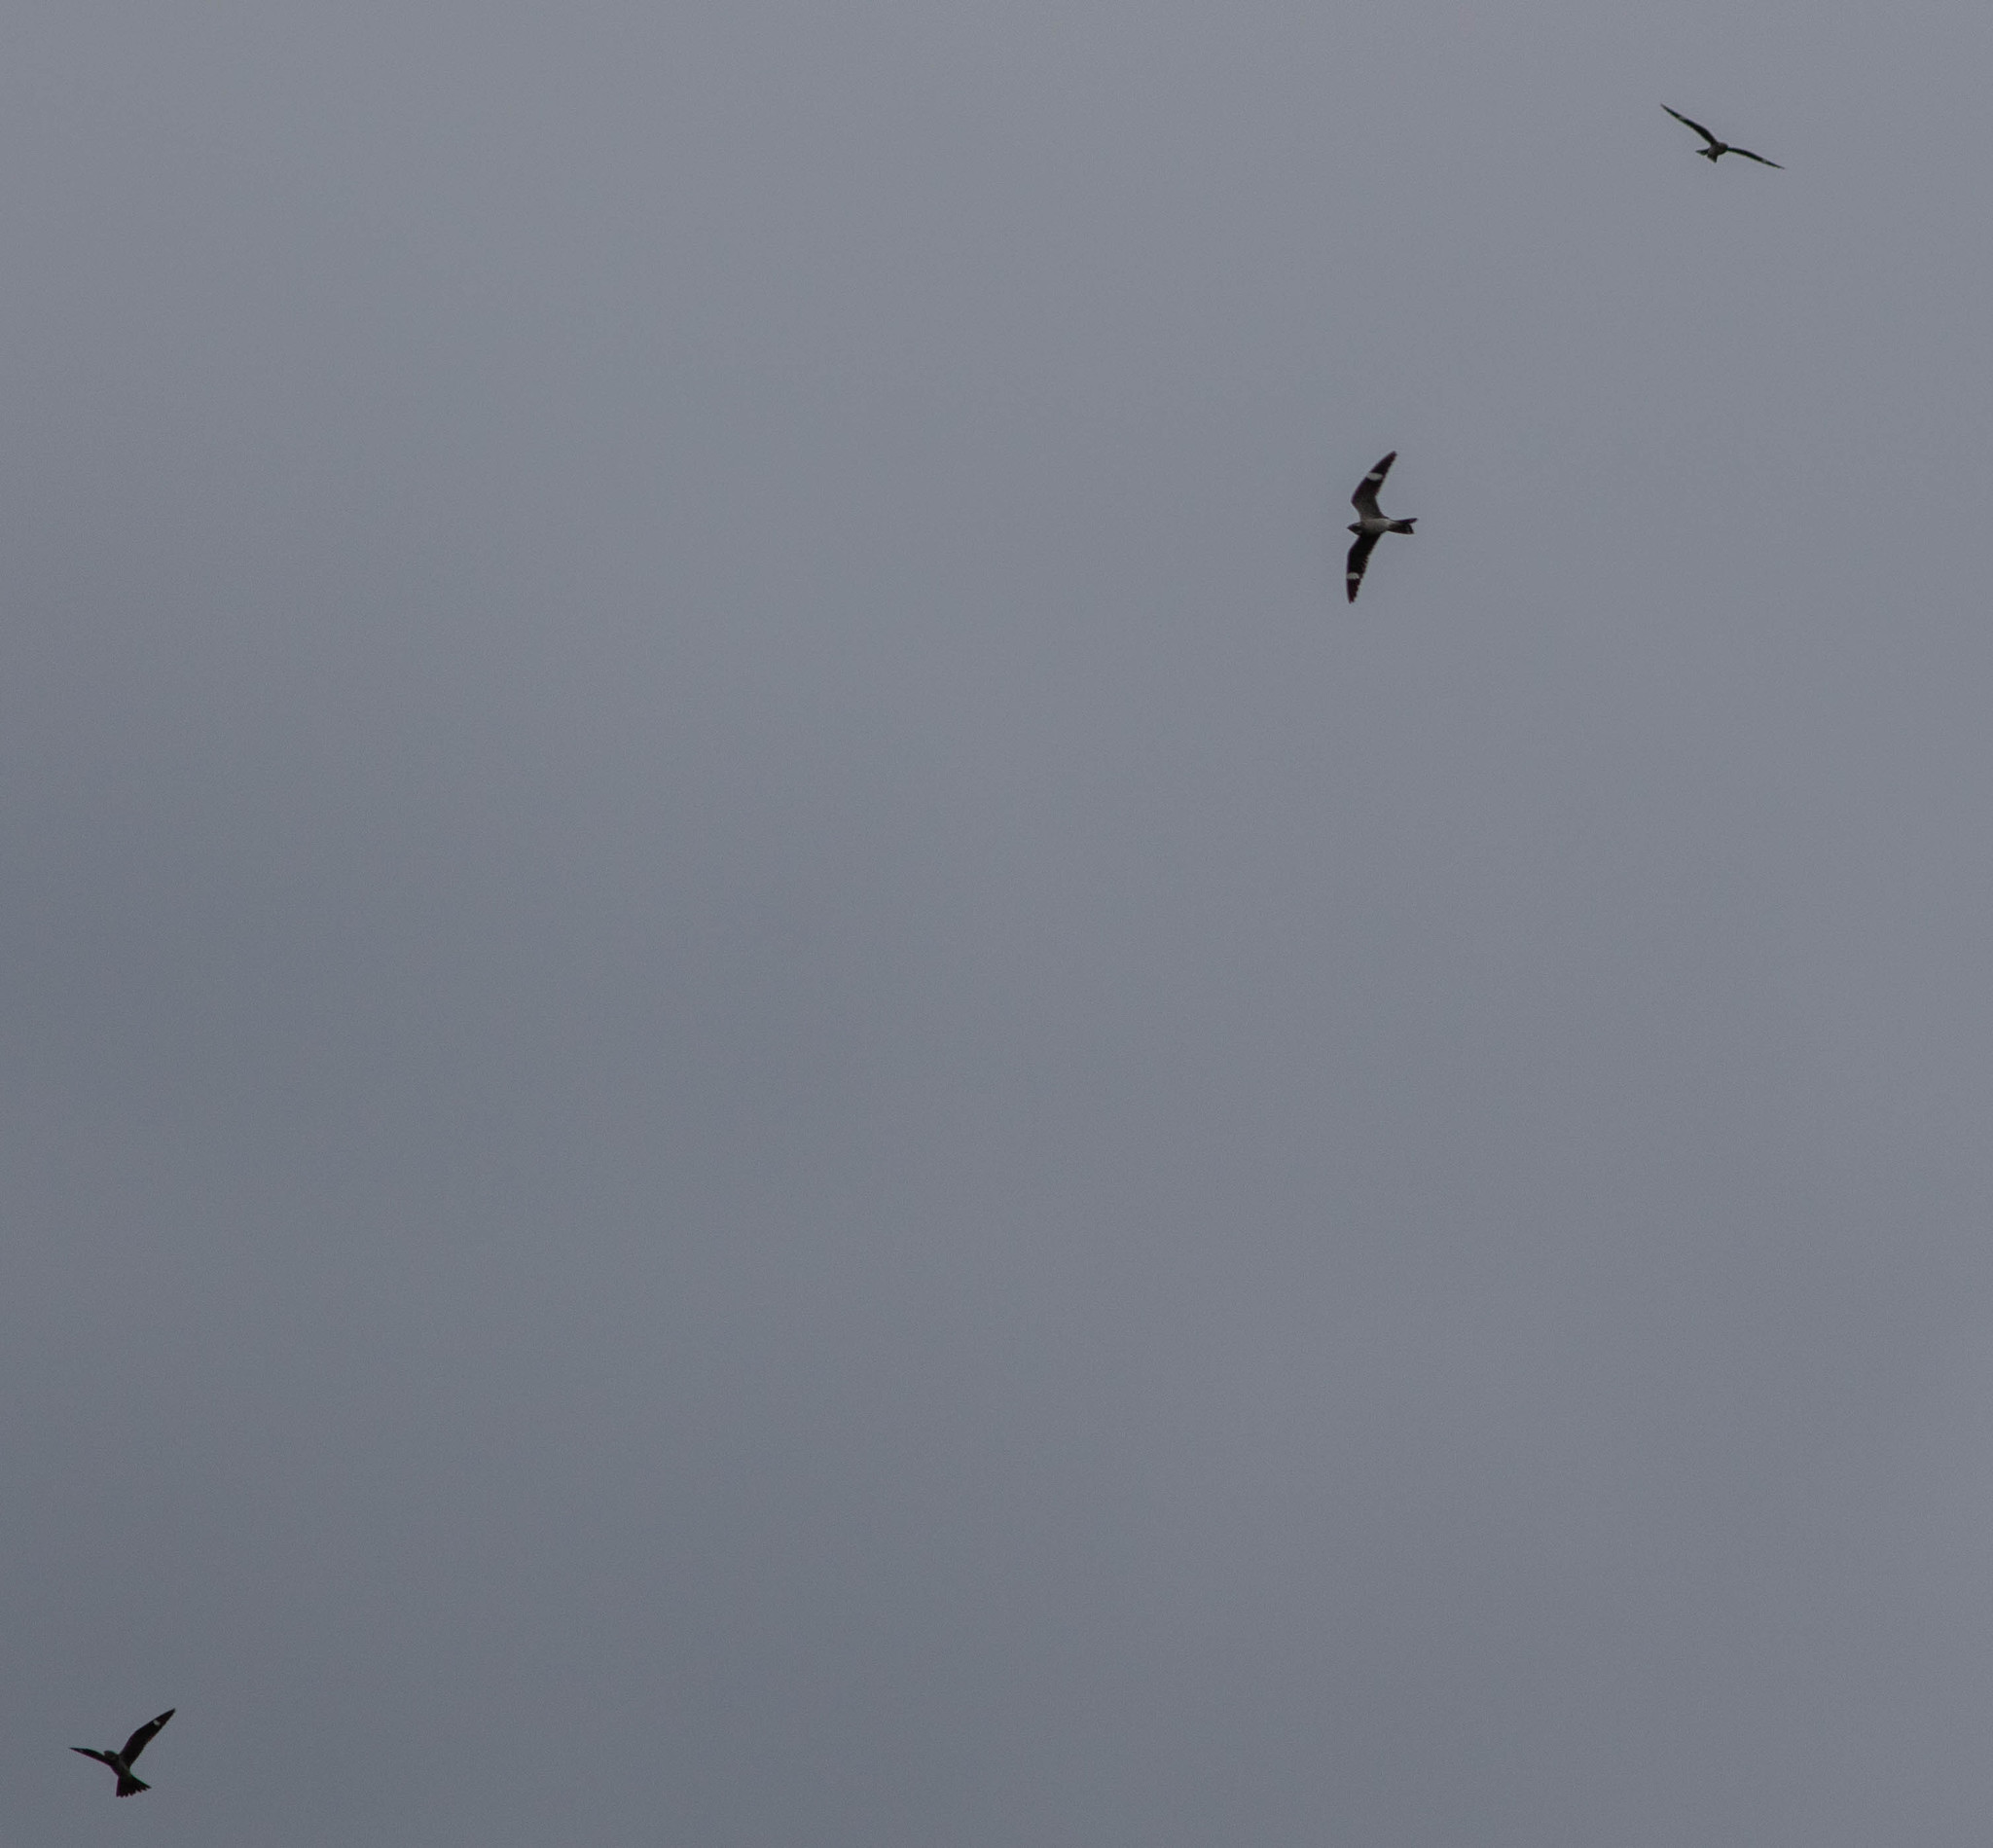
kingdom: Animalia
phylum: Chordata
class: Aves
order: Caprimulgiformes
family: Caprimulgidae
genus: Chordeiles
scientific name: Chordeiles minor
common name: Common nighthawk
